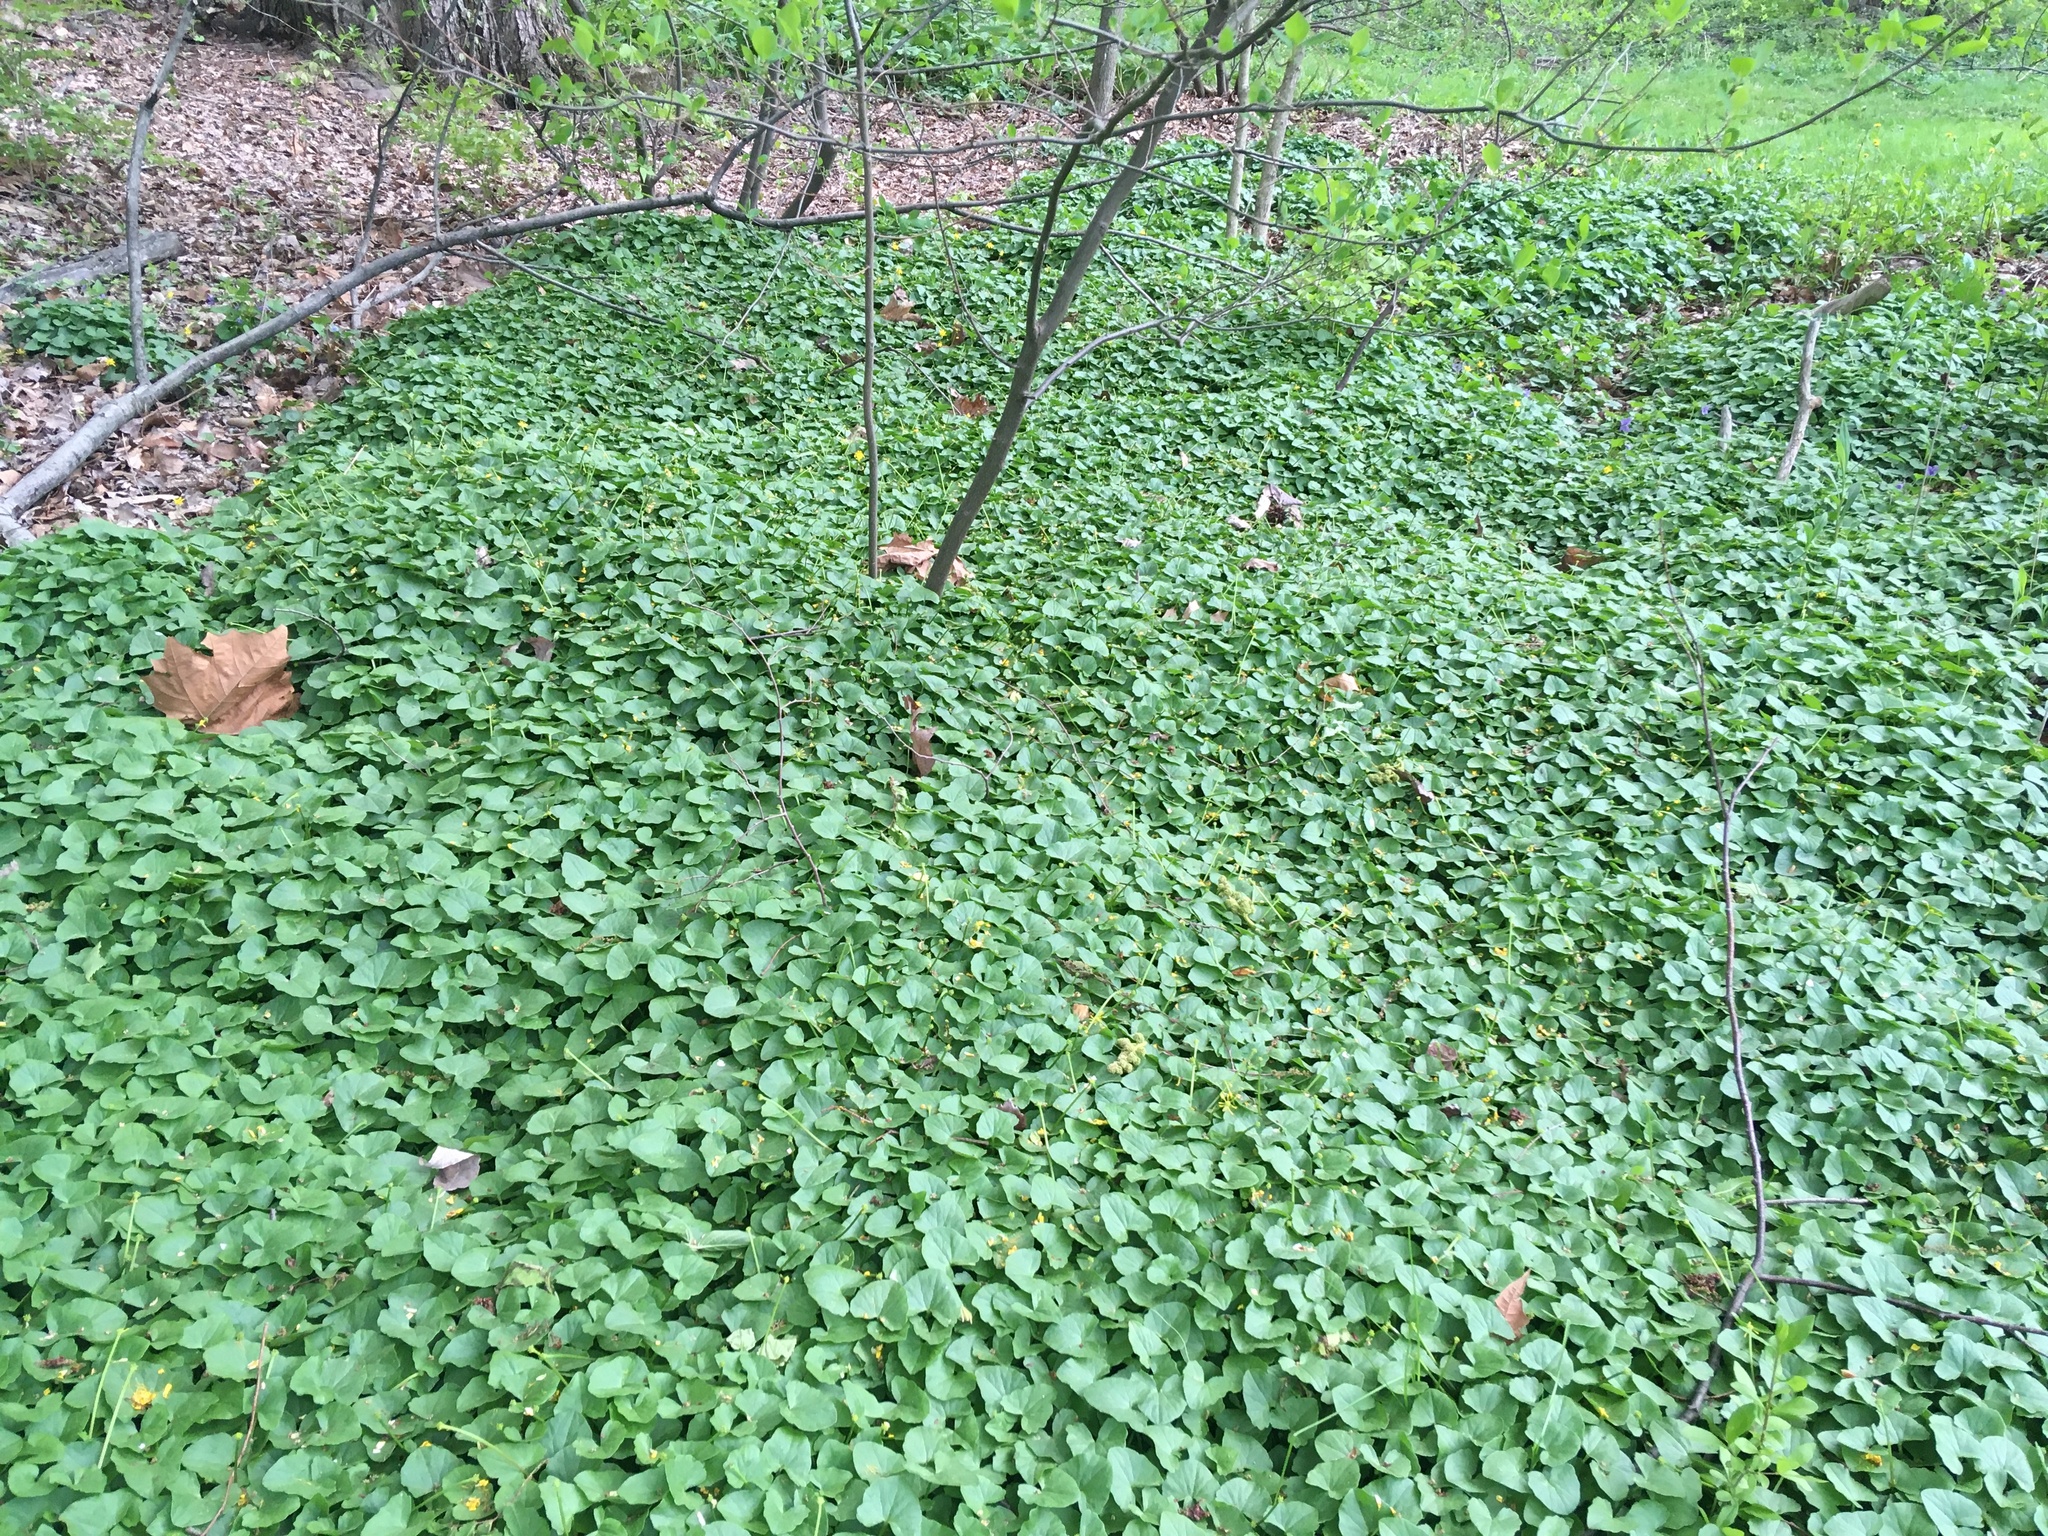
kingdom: Plantae
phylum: Tracheophyta
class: Magnoliopsida
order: Ranunculales
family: Ranunculaceae
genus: Ficaria
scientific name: Ficaria verna
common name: Lesser celandine
